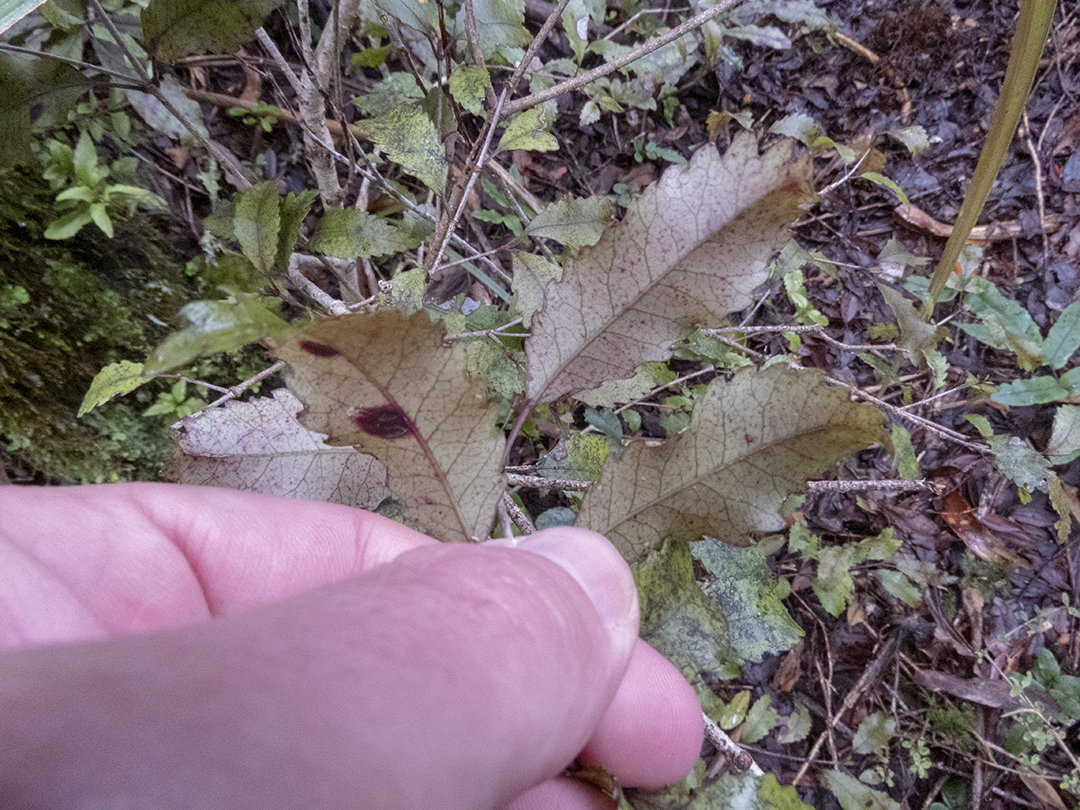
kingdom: Plantae
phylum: Tracheophyta
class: Magnoliopsida
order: Oxalidales
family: Cunoniaceae
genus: Pterophylla
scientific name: Pterophylla racemosa
